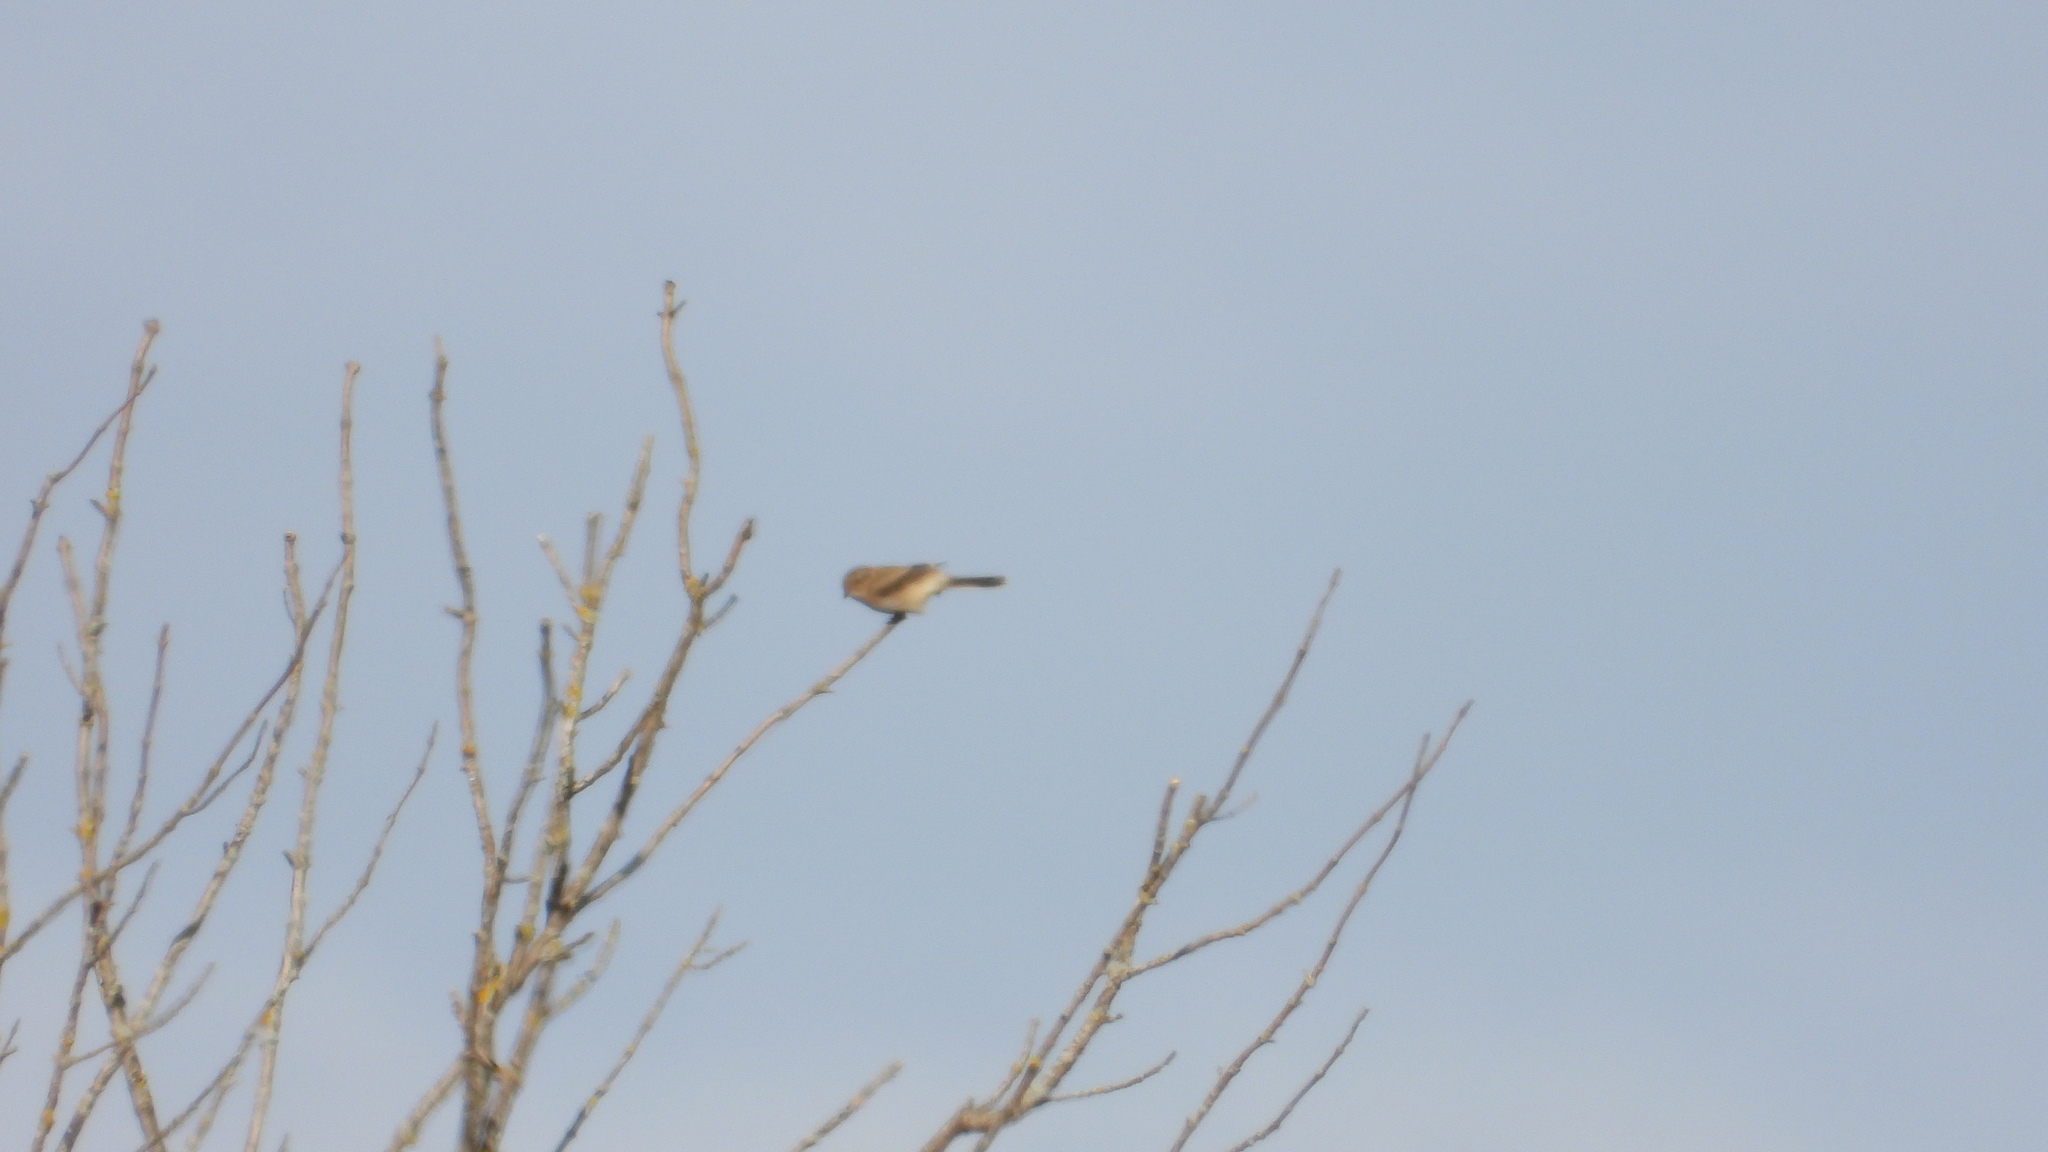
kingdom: Animalia
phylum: Chordata
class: Aves
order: Passeriformes
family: Laniidae
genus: Lanius
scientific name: Lanius borealis
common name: Northern shrike
